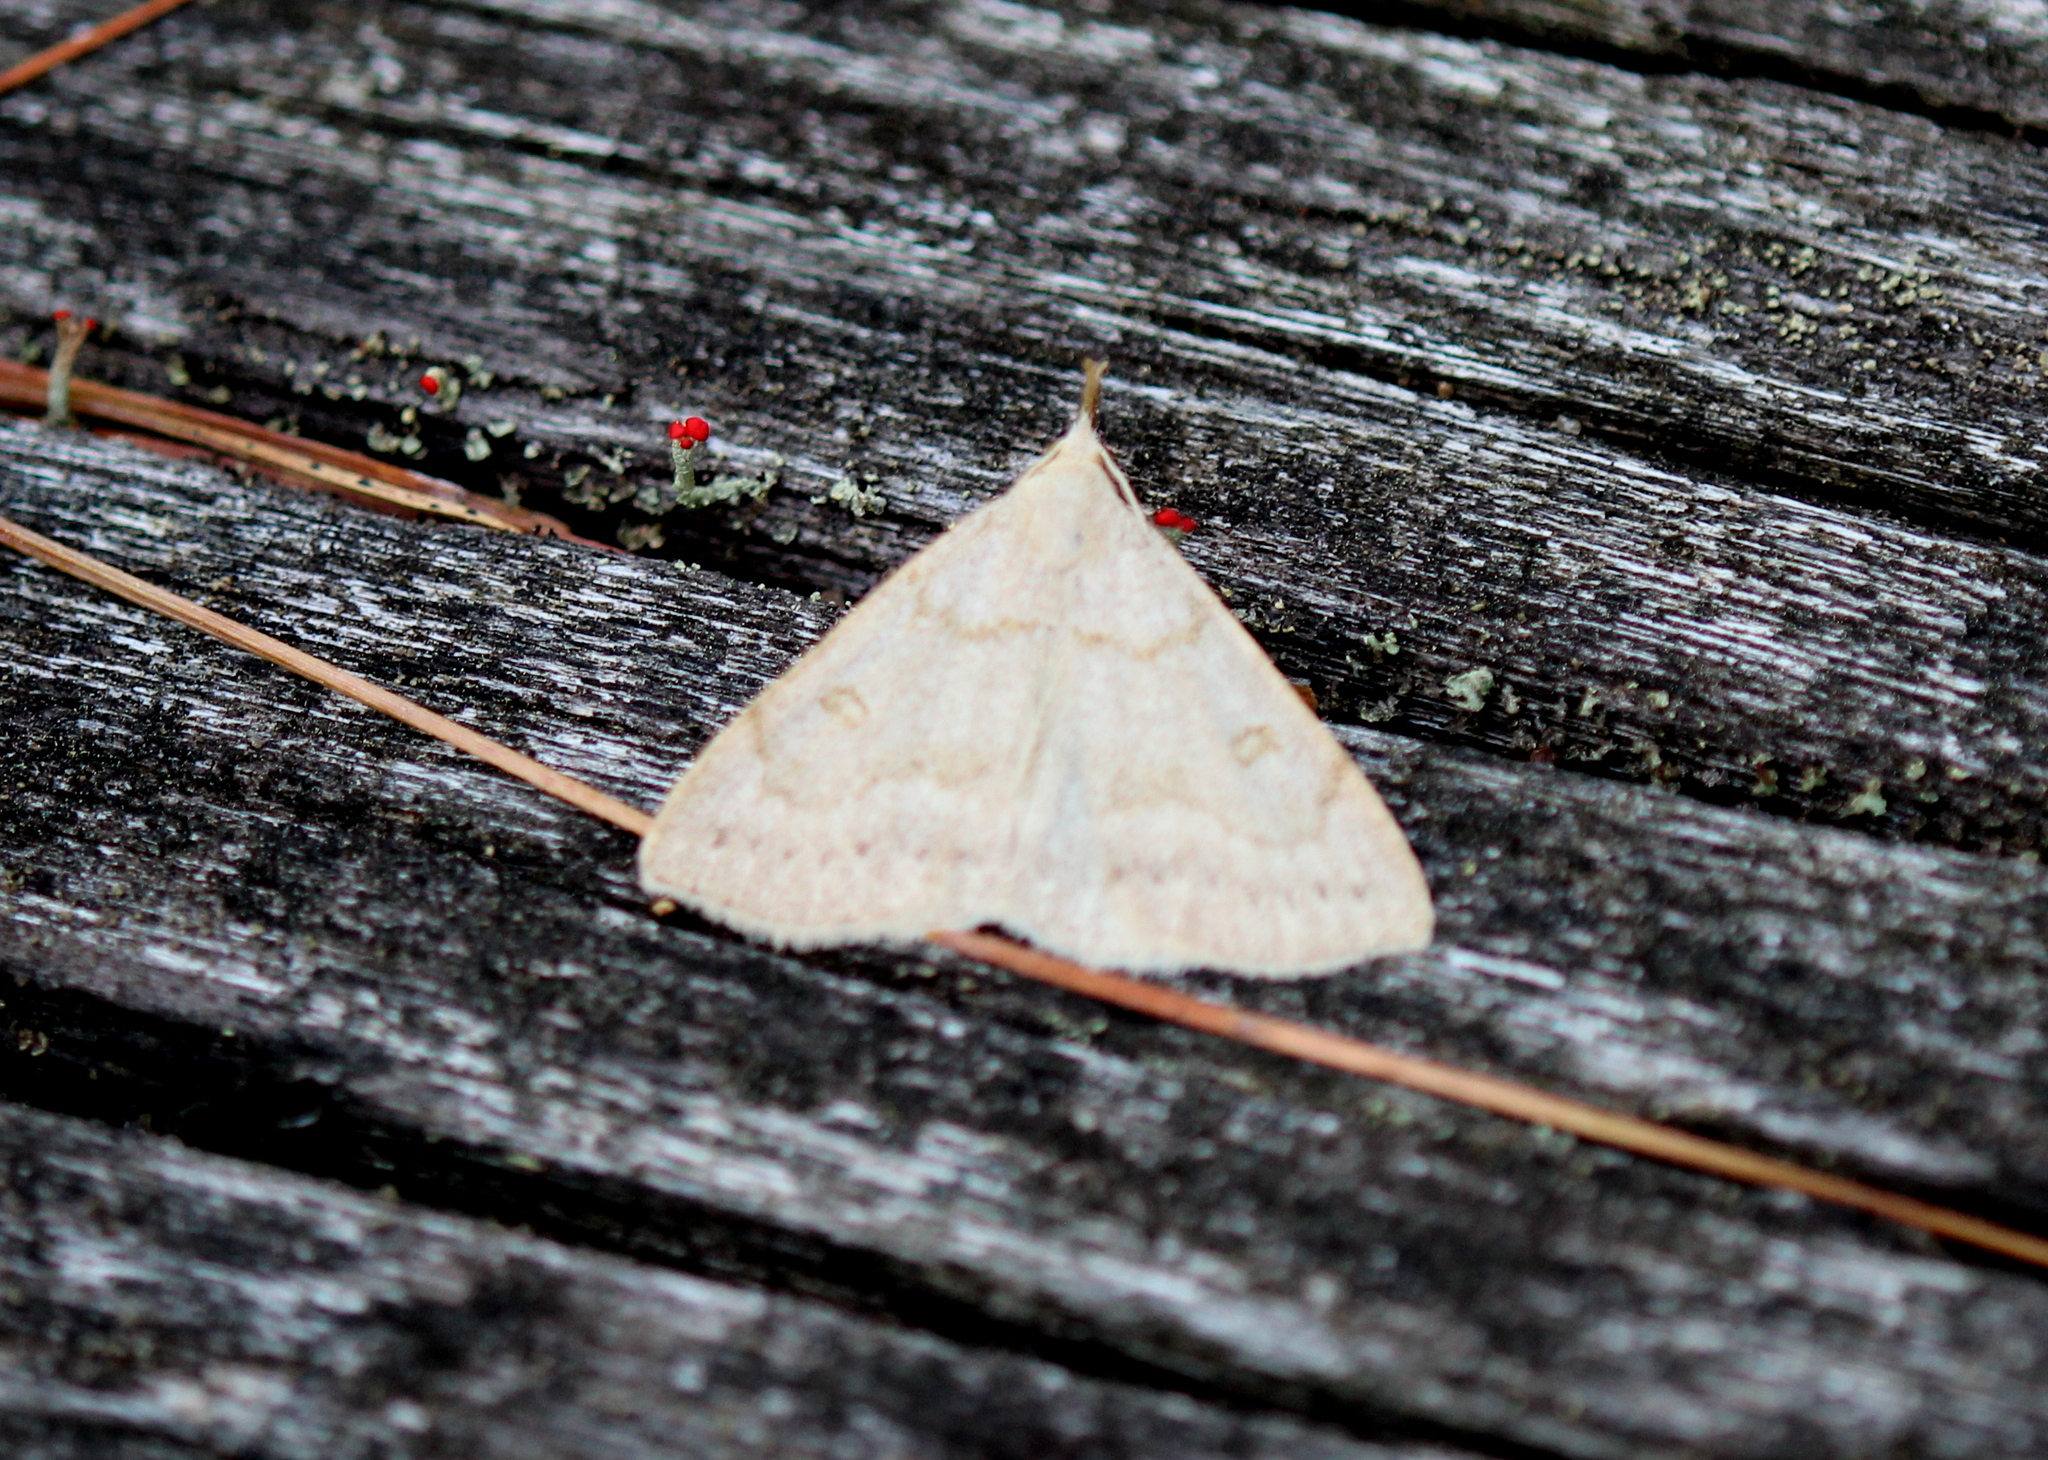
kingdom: Animalia
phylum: Arthropoda
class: Insecta
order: Lepidoptera
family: Erebidae
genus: Macrochilo
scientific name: Macrochilo morbidalis
